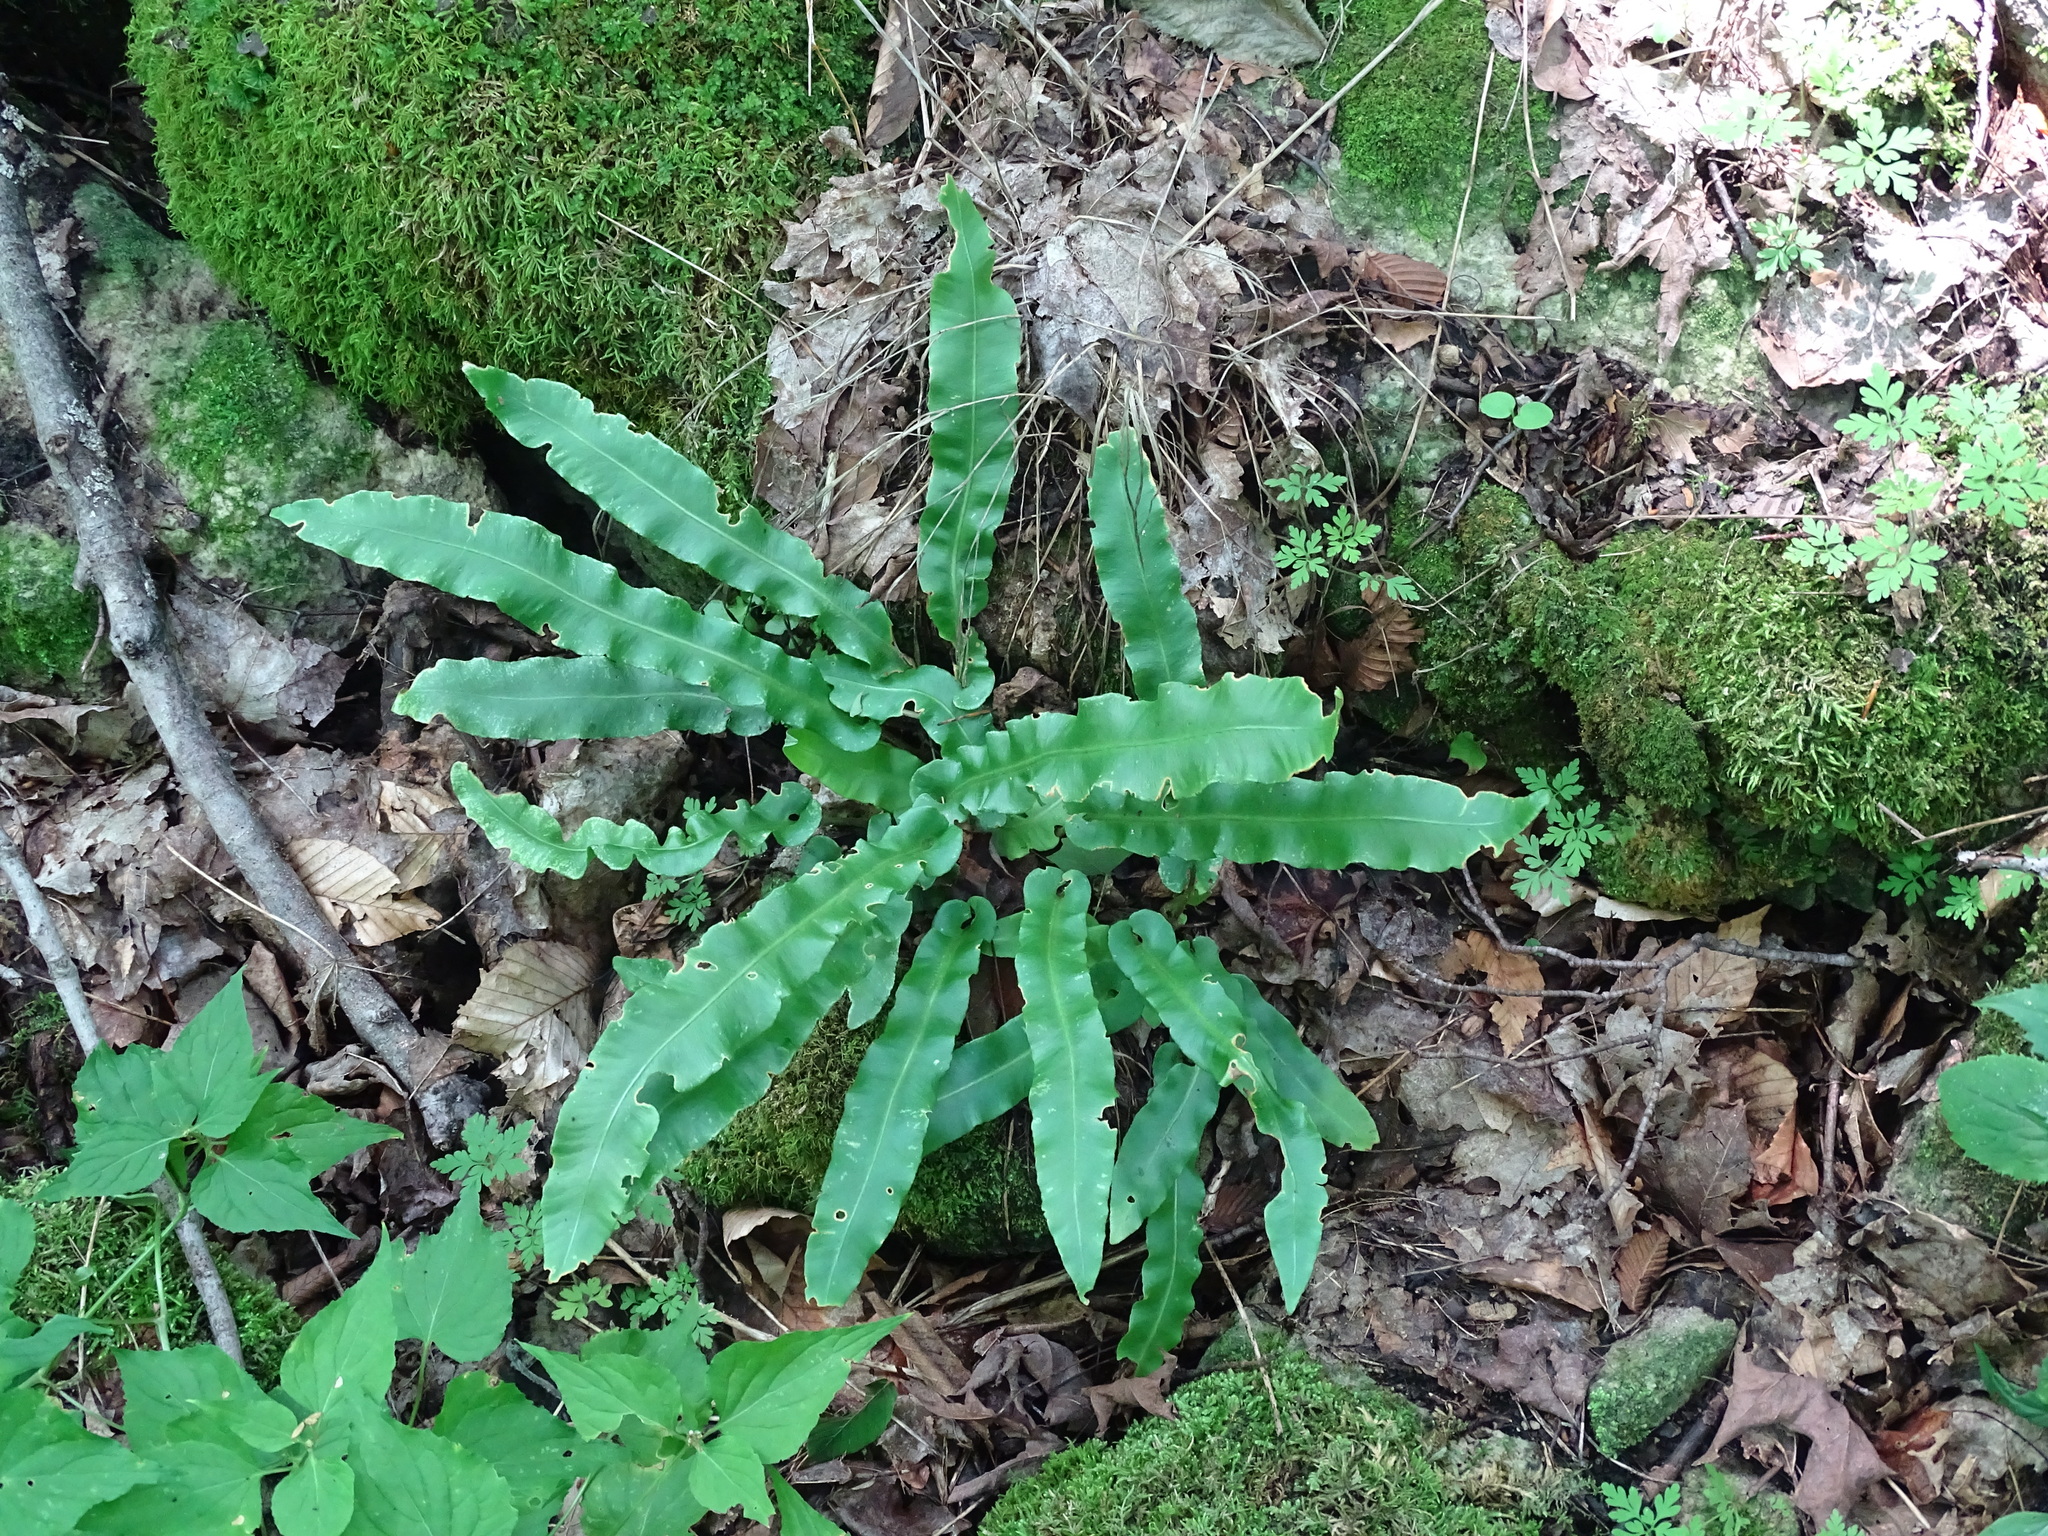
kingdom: Plantae
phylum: Tracheophyta
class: Polypodiopsida
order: Polypodiales
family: Aspleniaceae
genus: Asplenium
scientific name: Asplenium scolopendrium
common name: Hart's-tongue fern
